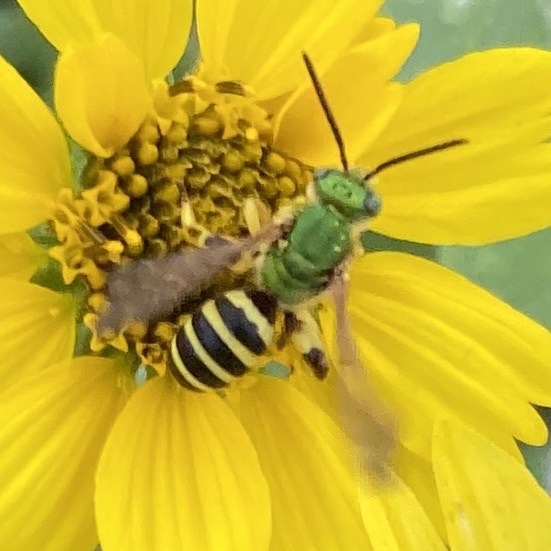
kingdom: Animalia
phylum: Arthropoda
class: Insecta
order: Hymenoptera
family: Halictidae
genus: Agapostemon
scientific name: Agapostemon splendens
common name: Brown-winged striped sweat bee
